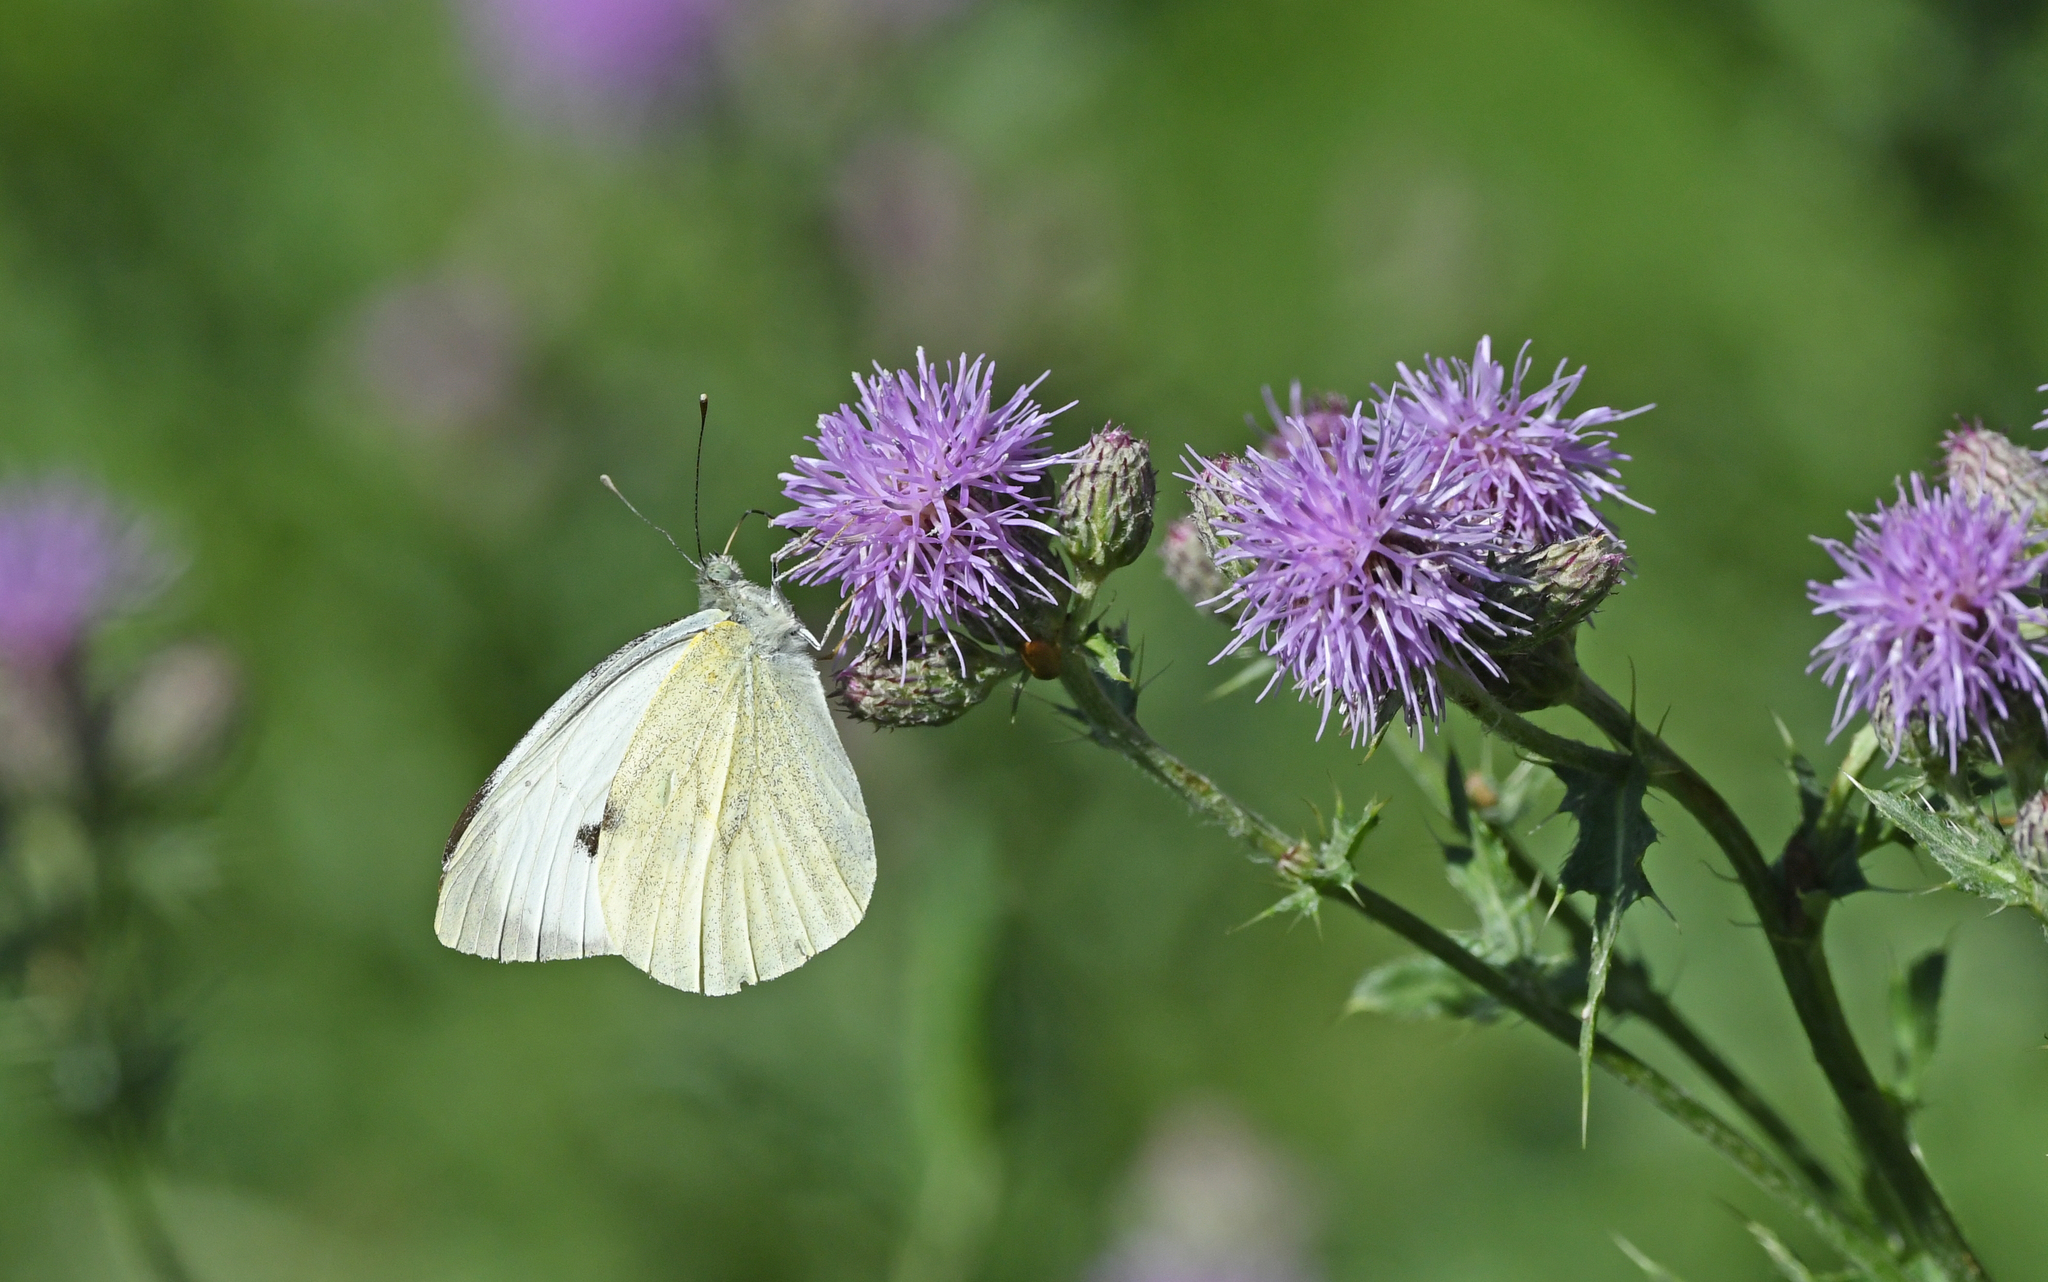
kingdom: Animalia
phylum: Arthropoda
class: Insecta
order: Lepidoptera
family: Pieridae
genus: Pieris
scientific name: Pieris brassicae
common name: Large white
